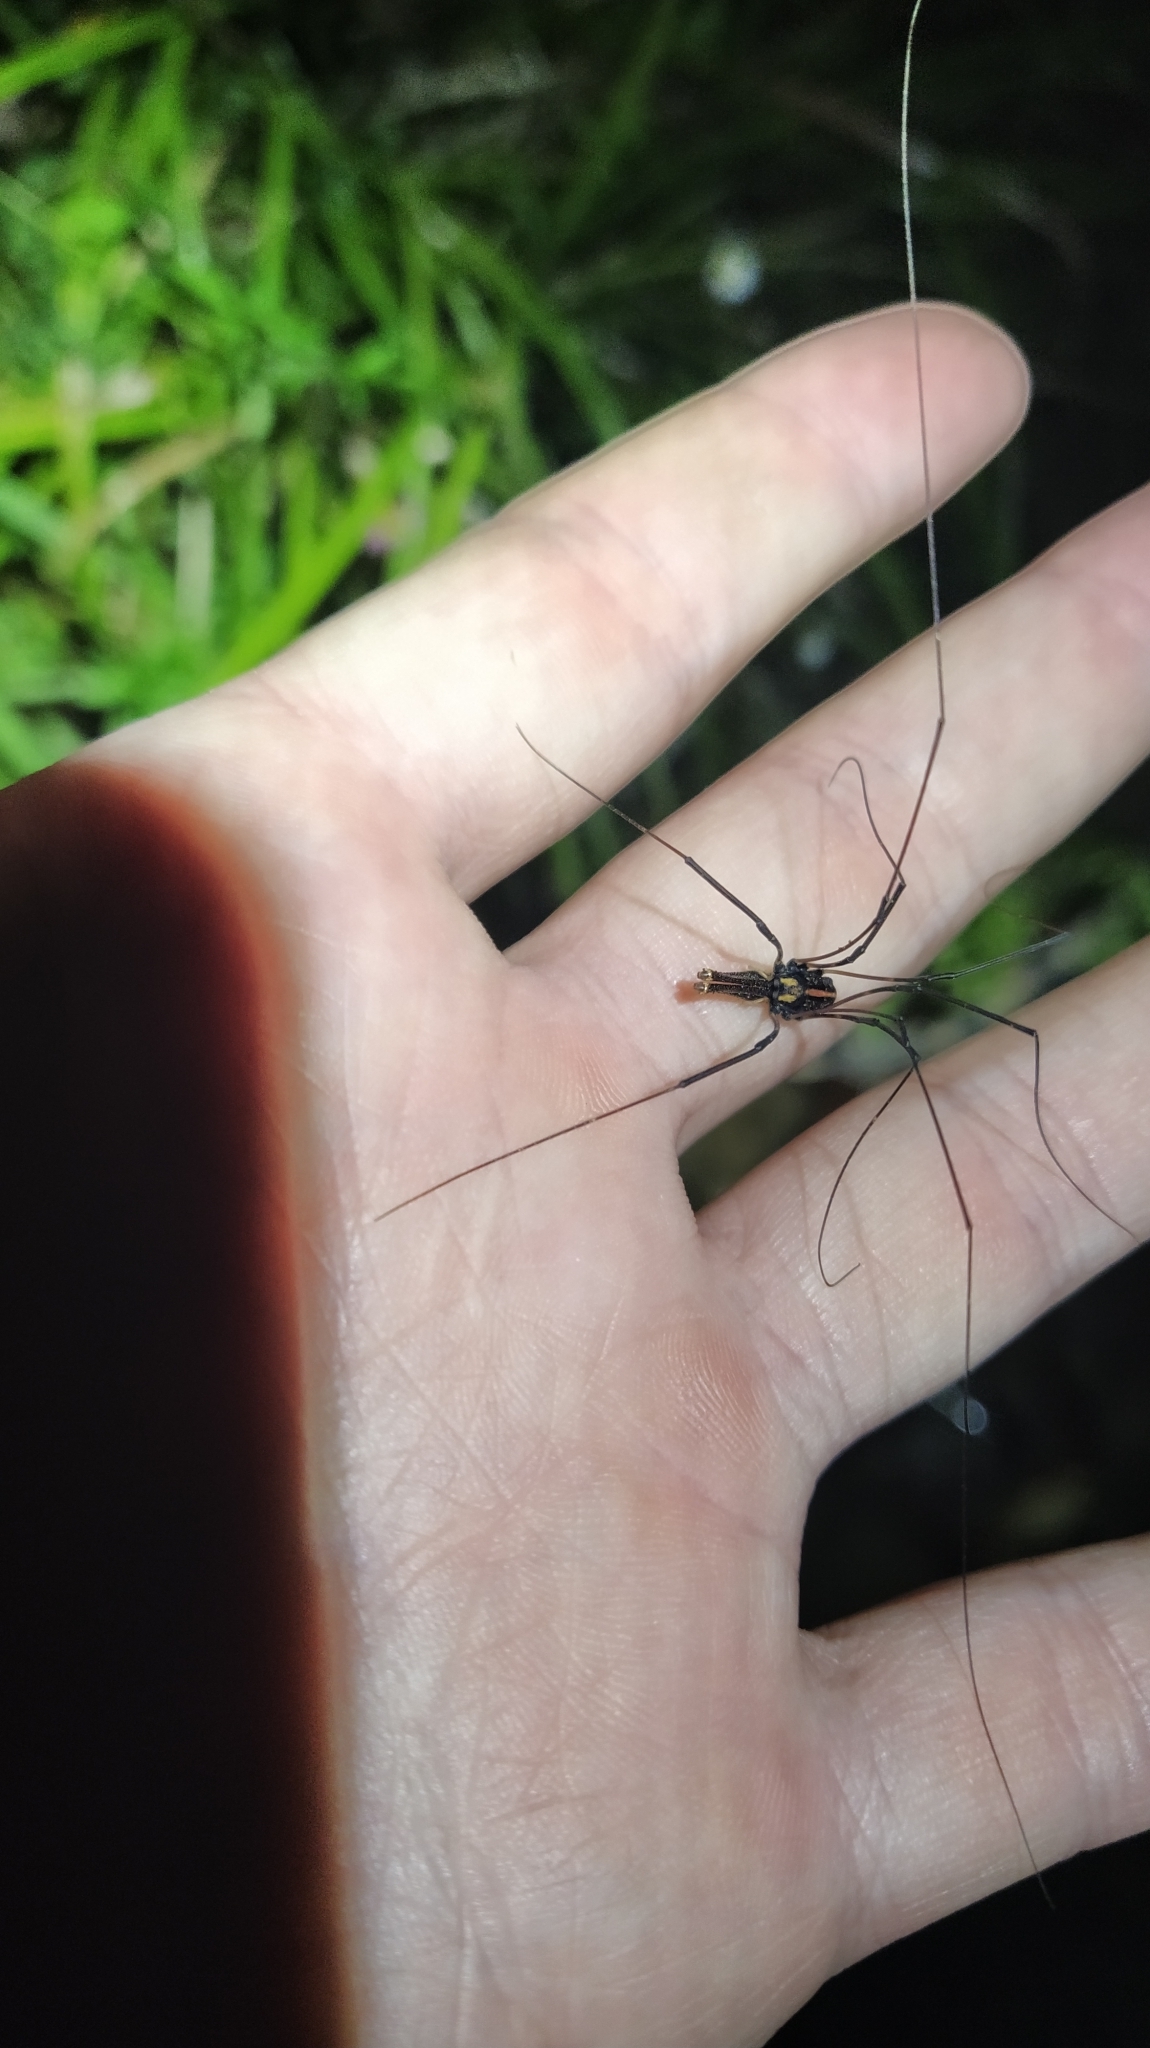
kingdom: Animalia
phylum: Arthropoda
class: Arachnida
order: Opiliones
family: Neopilionidae
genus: Forsteropsalis
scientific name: Forsteropsalis pureora
